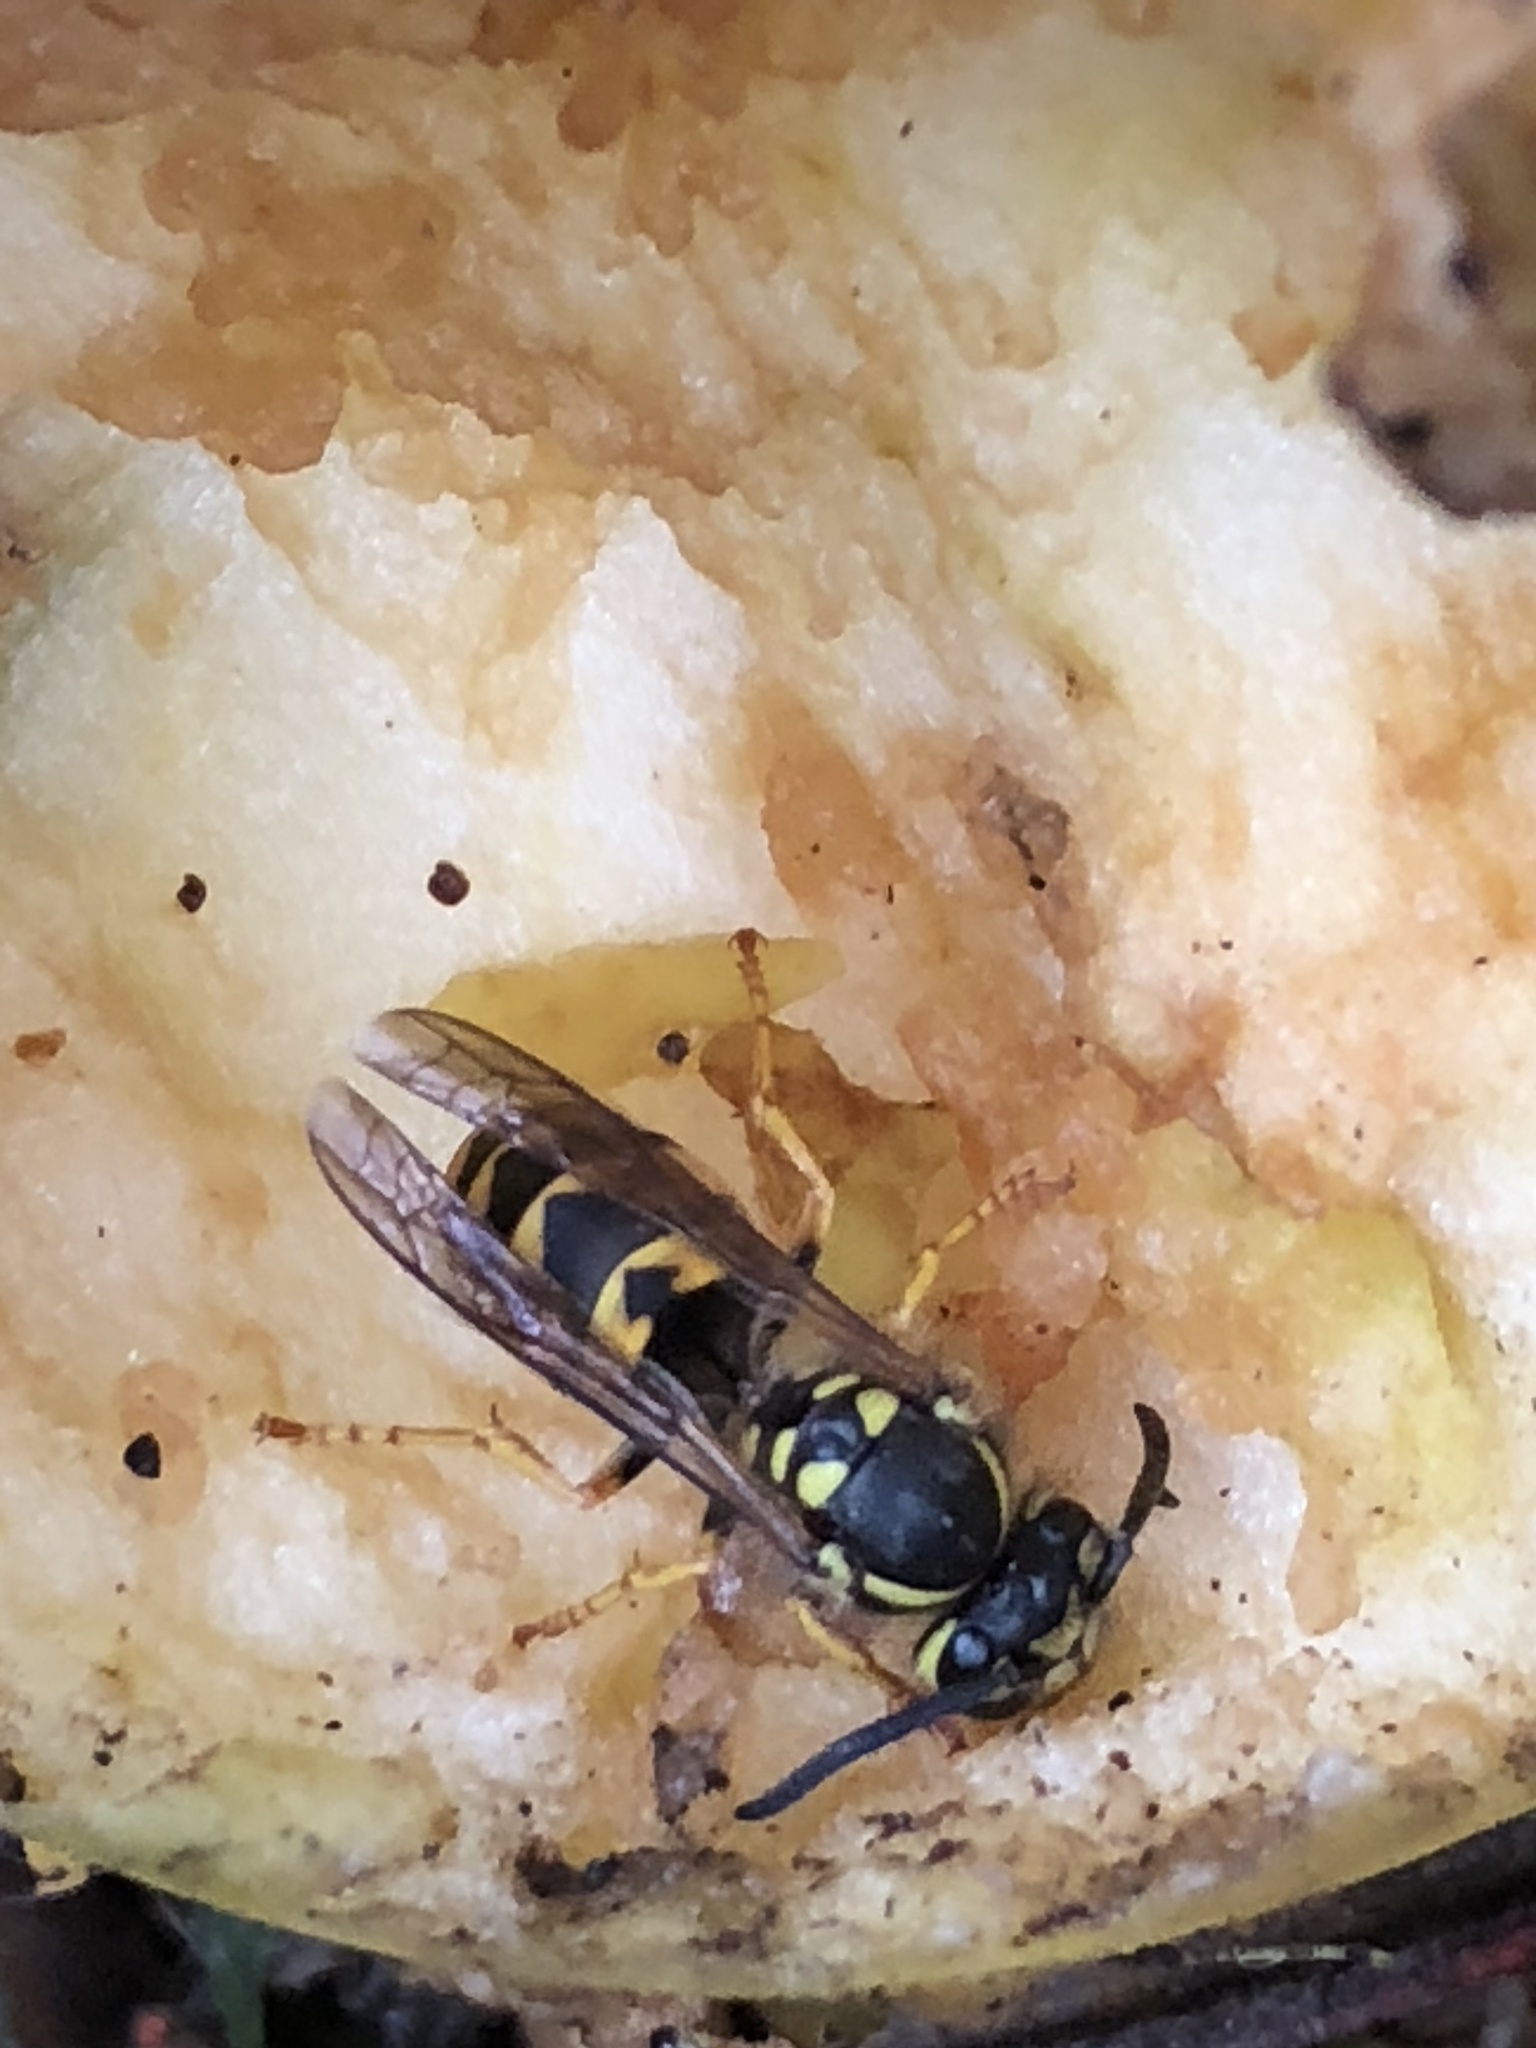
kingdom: Animalia
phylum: Arthropoda
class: Insecta
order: Hymenoptera
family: Vespidae
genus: Vespula
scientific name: Vespula germanica
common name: German wasp
